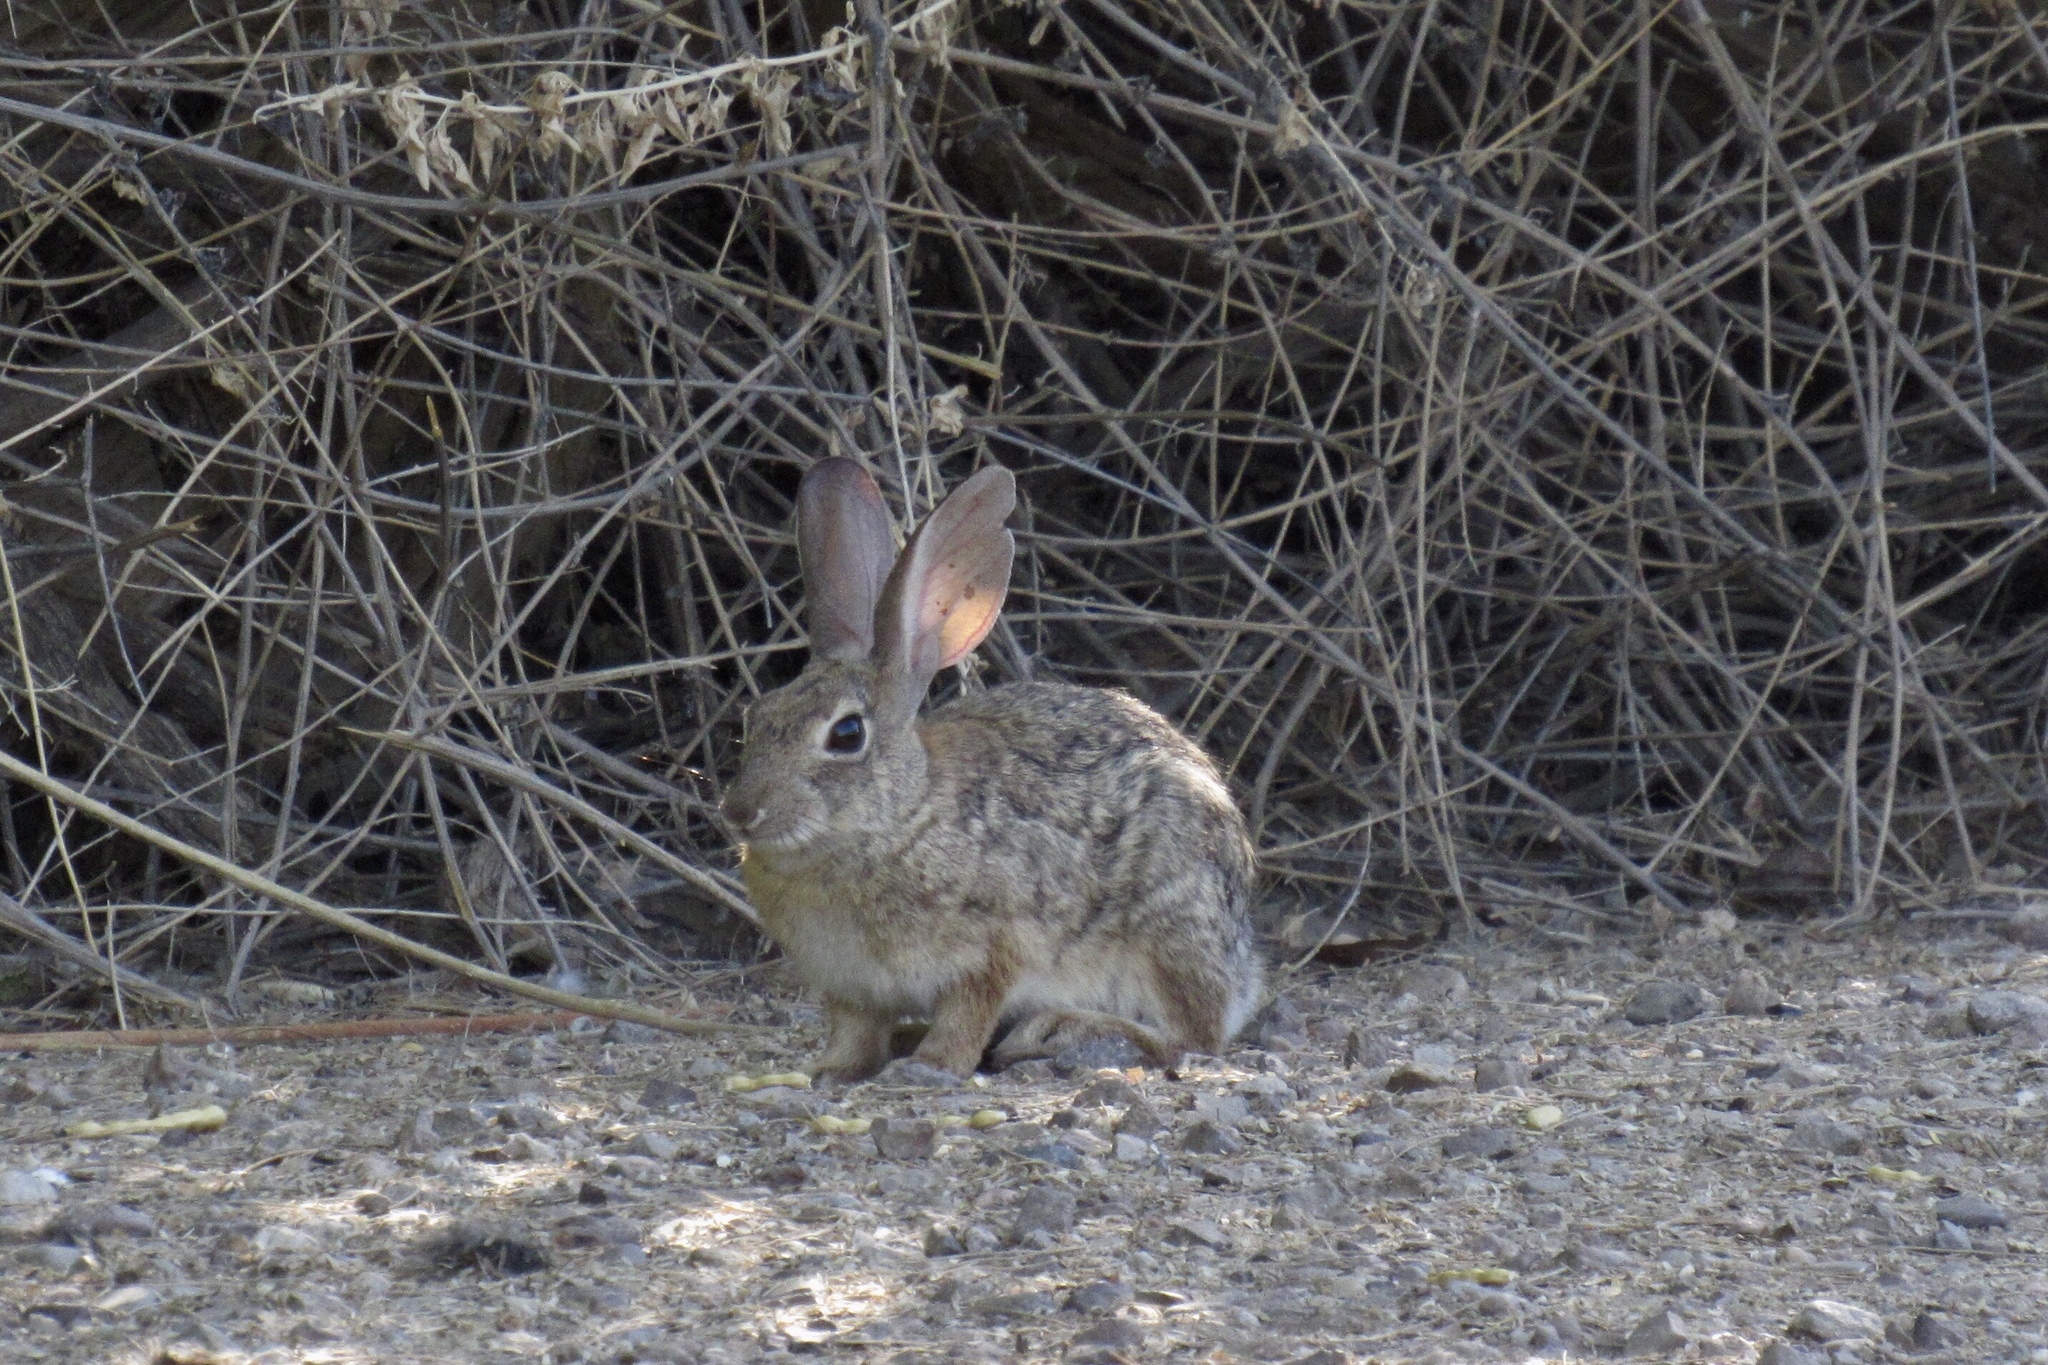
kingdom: Animalia
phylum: Chordata
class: Mammalia
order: Lagomorpha
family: Leporidae
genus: Sylvilagus
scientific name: Sylvilagus audubonii
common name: Desert cottontail
